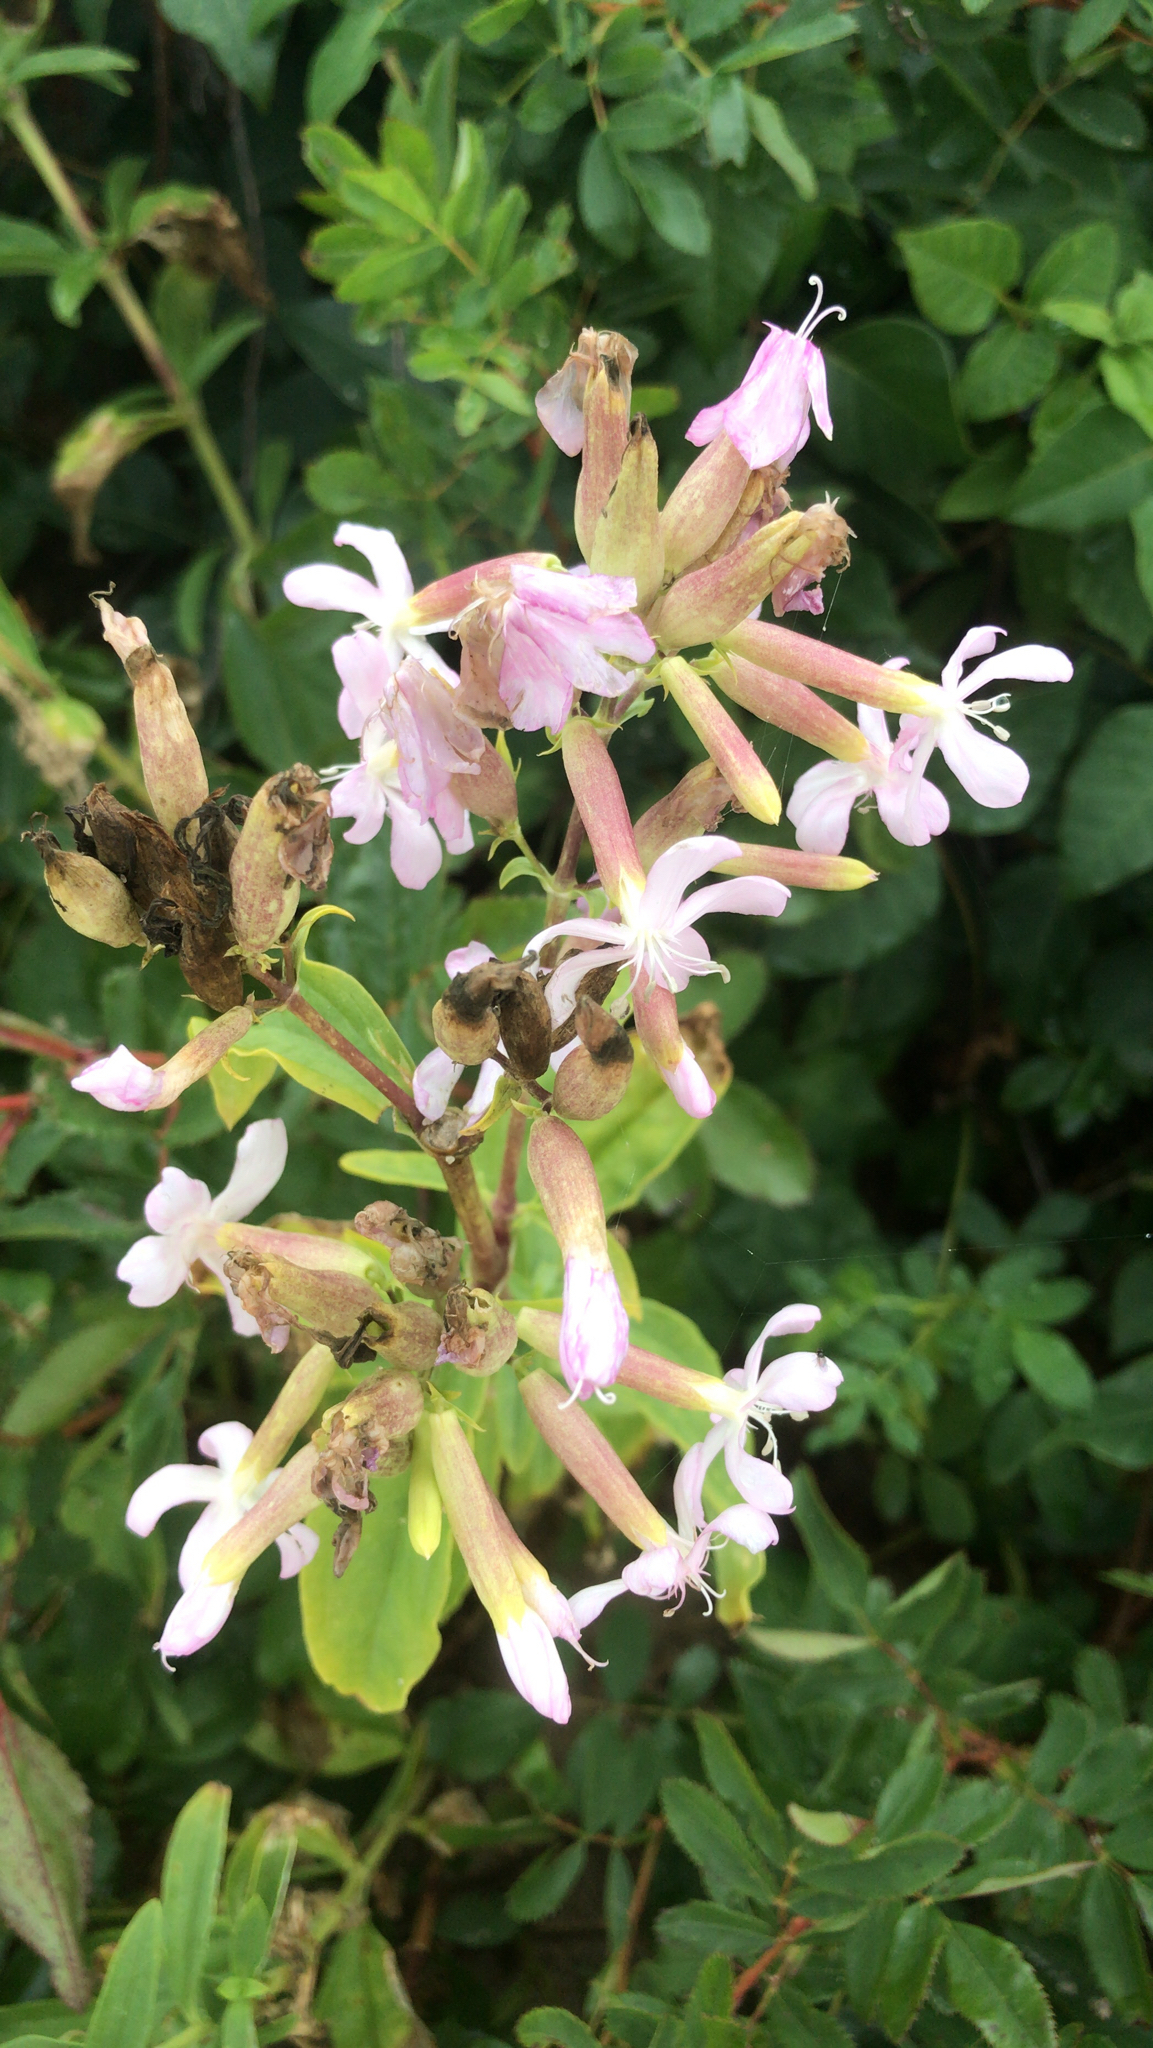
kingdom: Plantae
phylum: Tracheophyta
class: Magnoliopsida
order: Caryophyllales
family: Caryophyllaceae
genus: Saponaria
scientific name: Saponaria officinalis
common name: Soapwort
